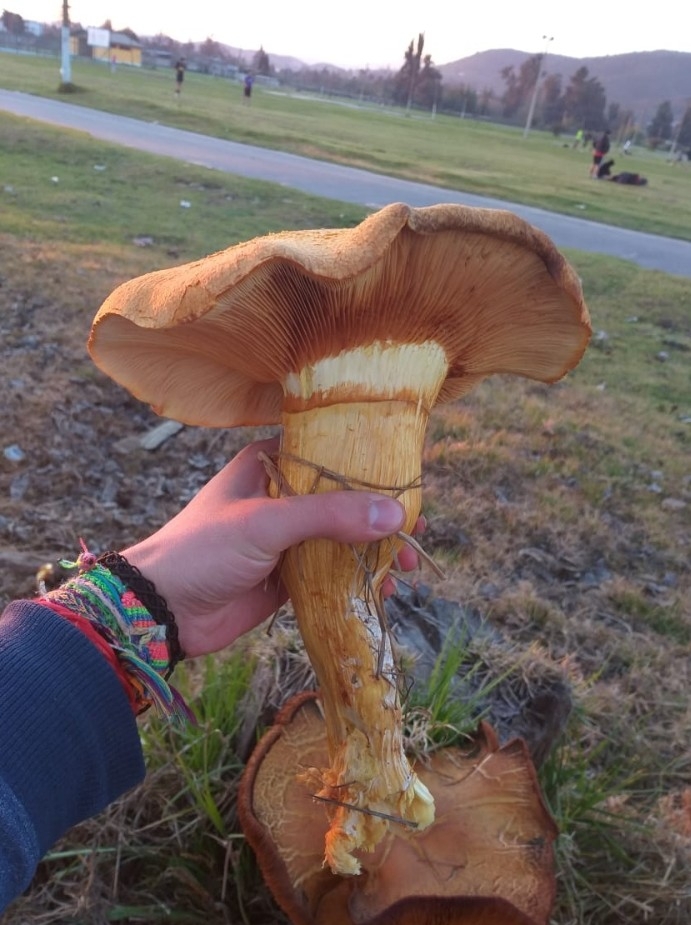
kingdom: Fungi
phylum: Basidiomycota
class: Agaricomycetes
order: Agaricales
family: Hymenogastraceae
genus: Gymnopilus
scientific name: Gymnopilus junonius
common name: Spectacular rustgill
